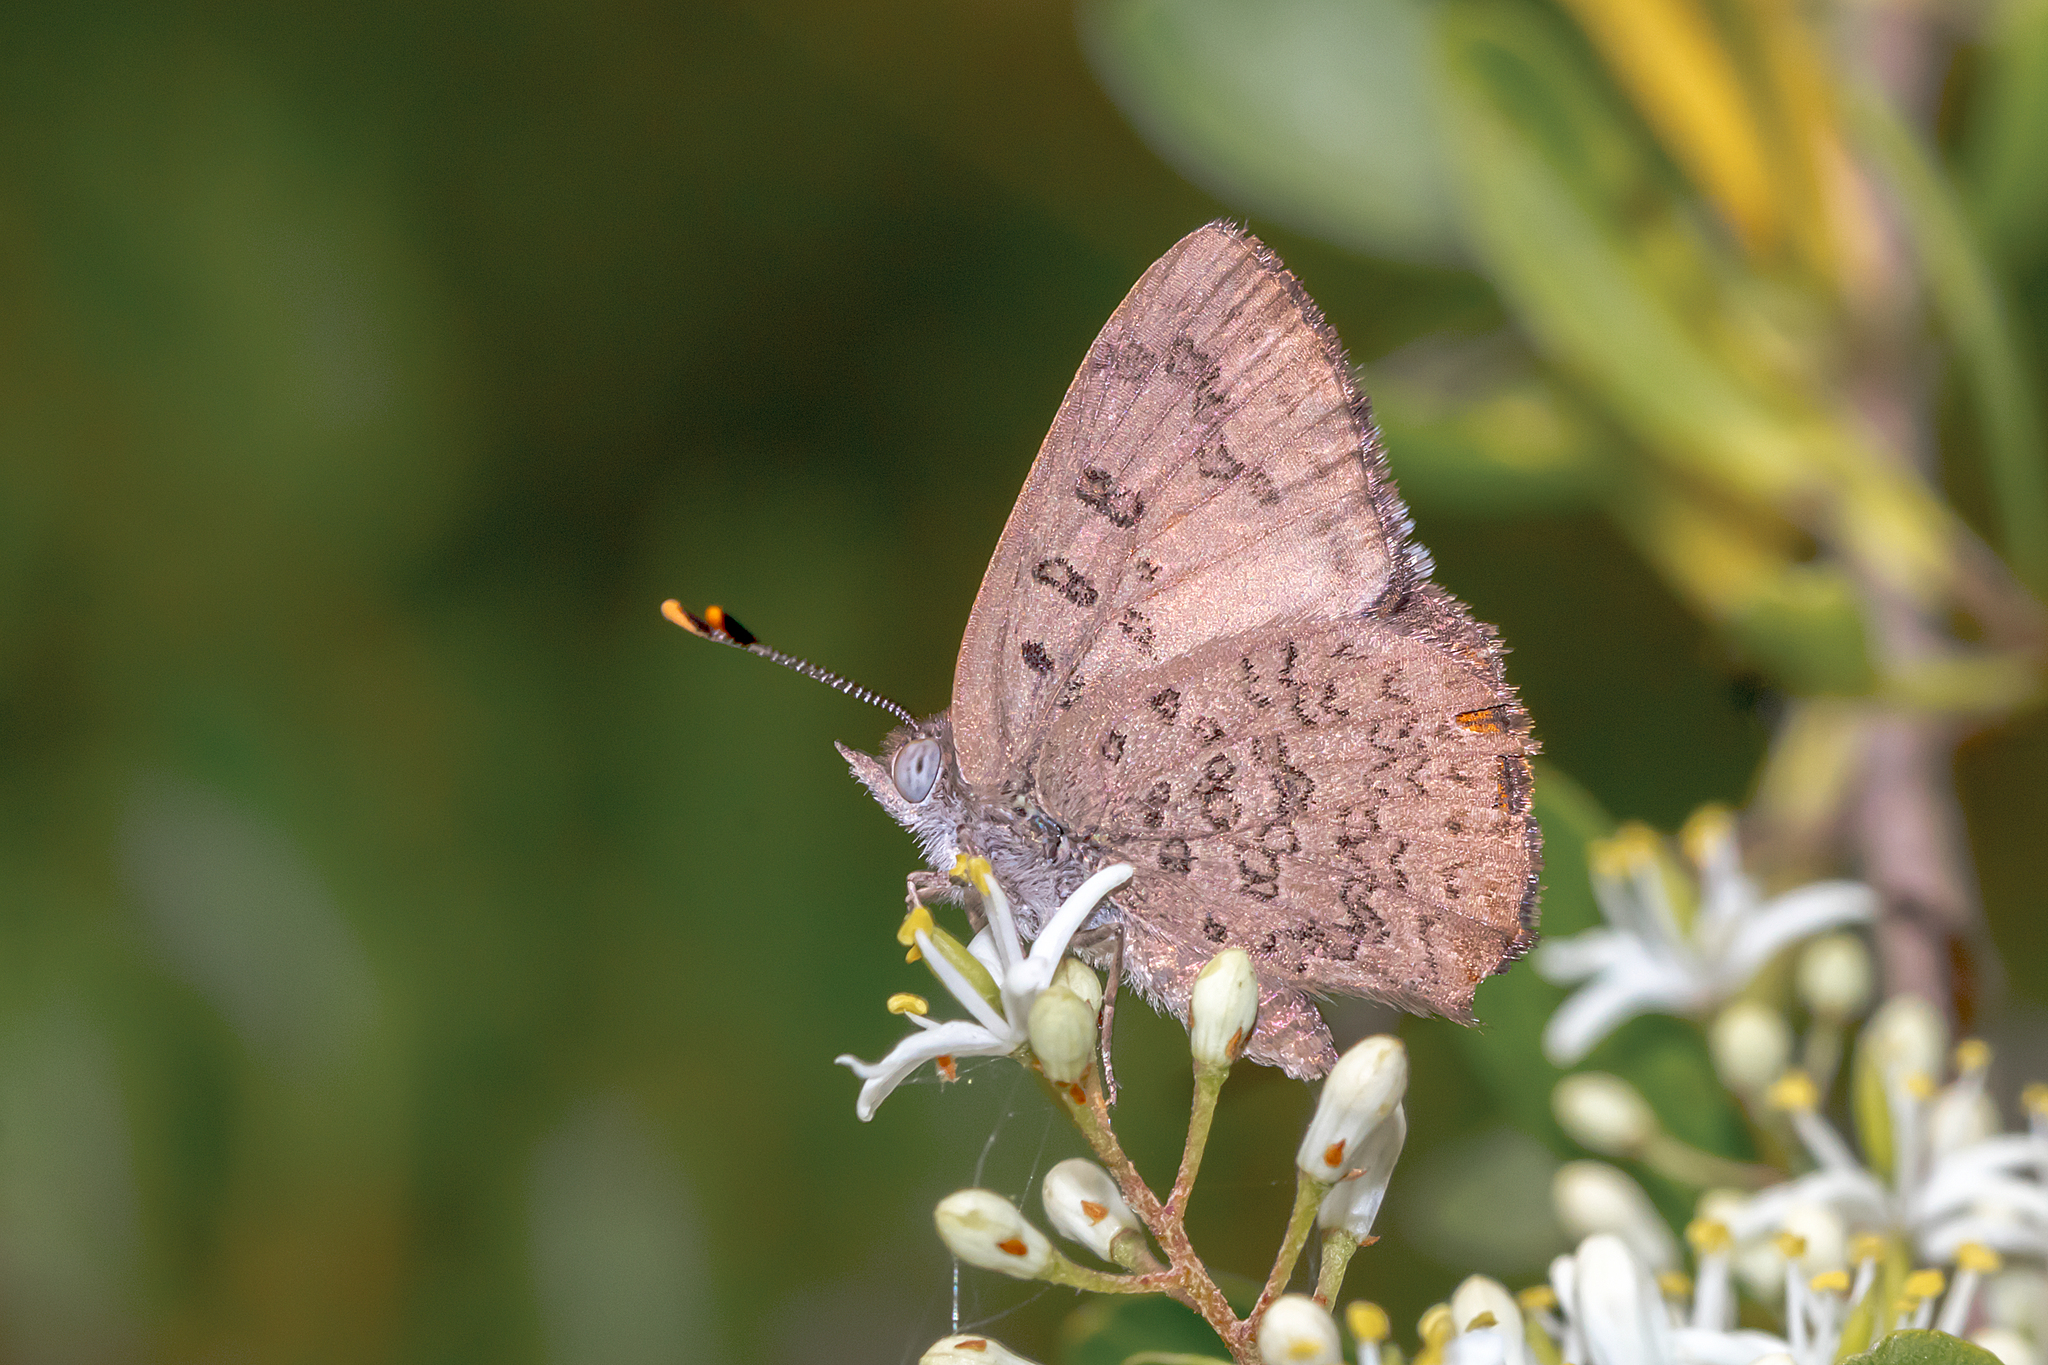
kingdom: Animalia
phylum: Arthropoda
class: Insecta
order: Lepidoptera
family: Lycaenidae
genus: Paralucia
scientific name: Paralucia pyrodiscus
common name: Fiery copper
